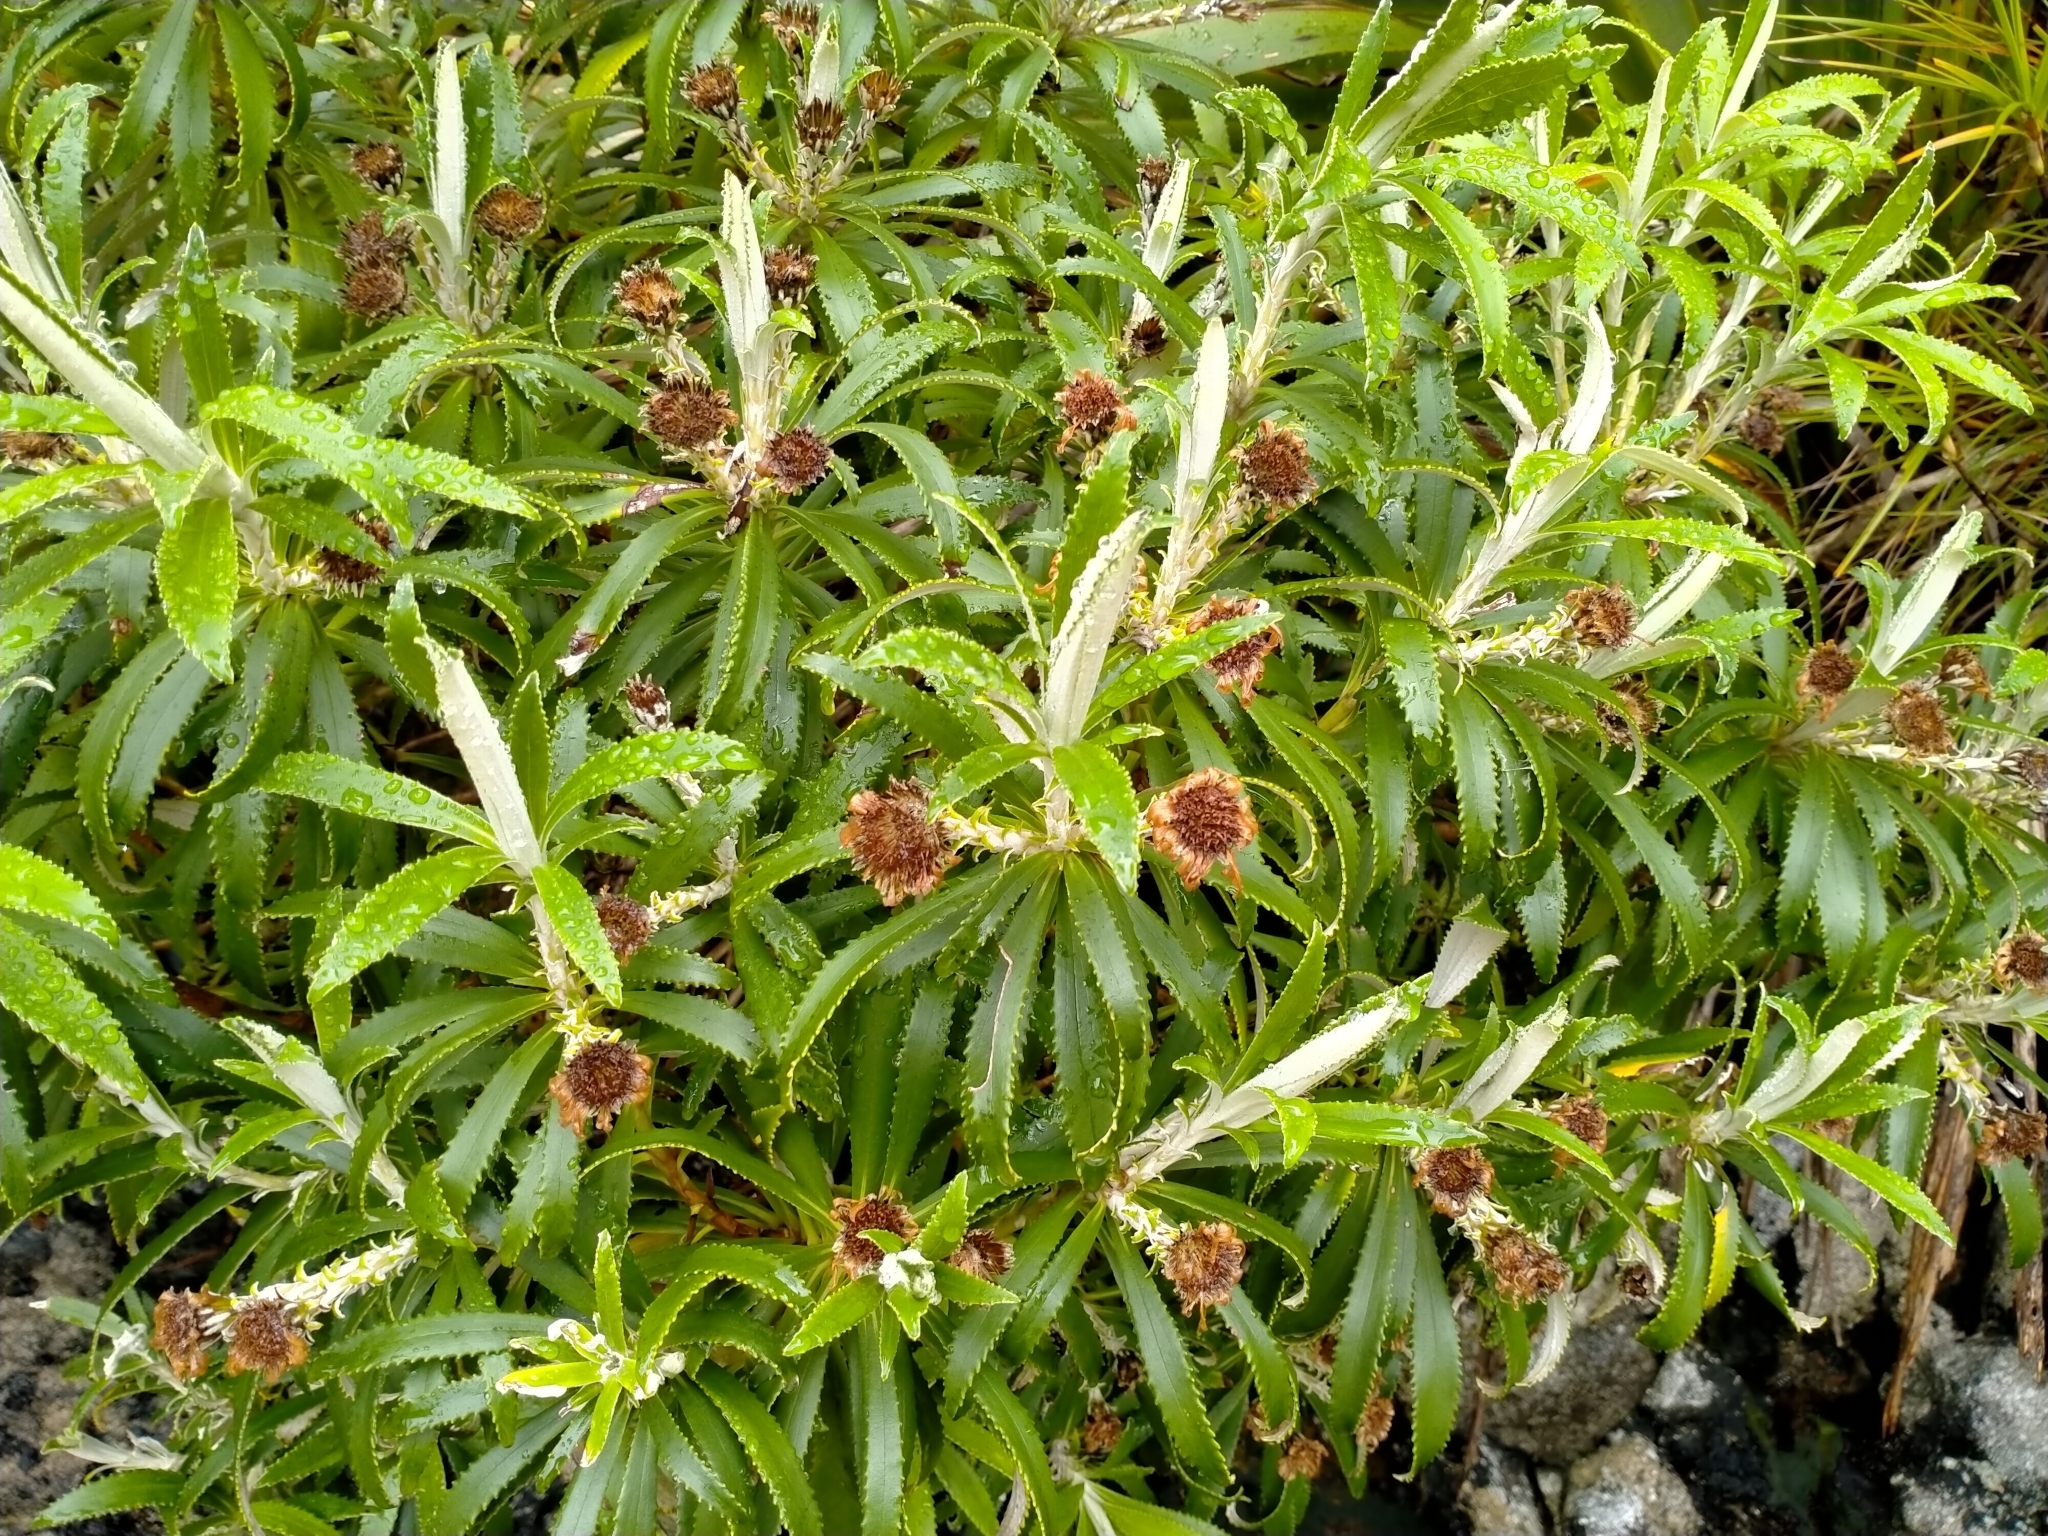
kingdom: Plantae
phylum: Tracheophyta
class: Magnoliopsida
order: Asterales
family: Asteraceae
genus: Macrolearia
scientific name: Macrolearia oporina
